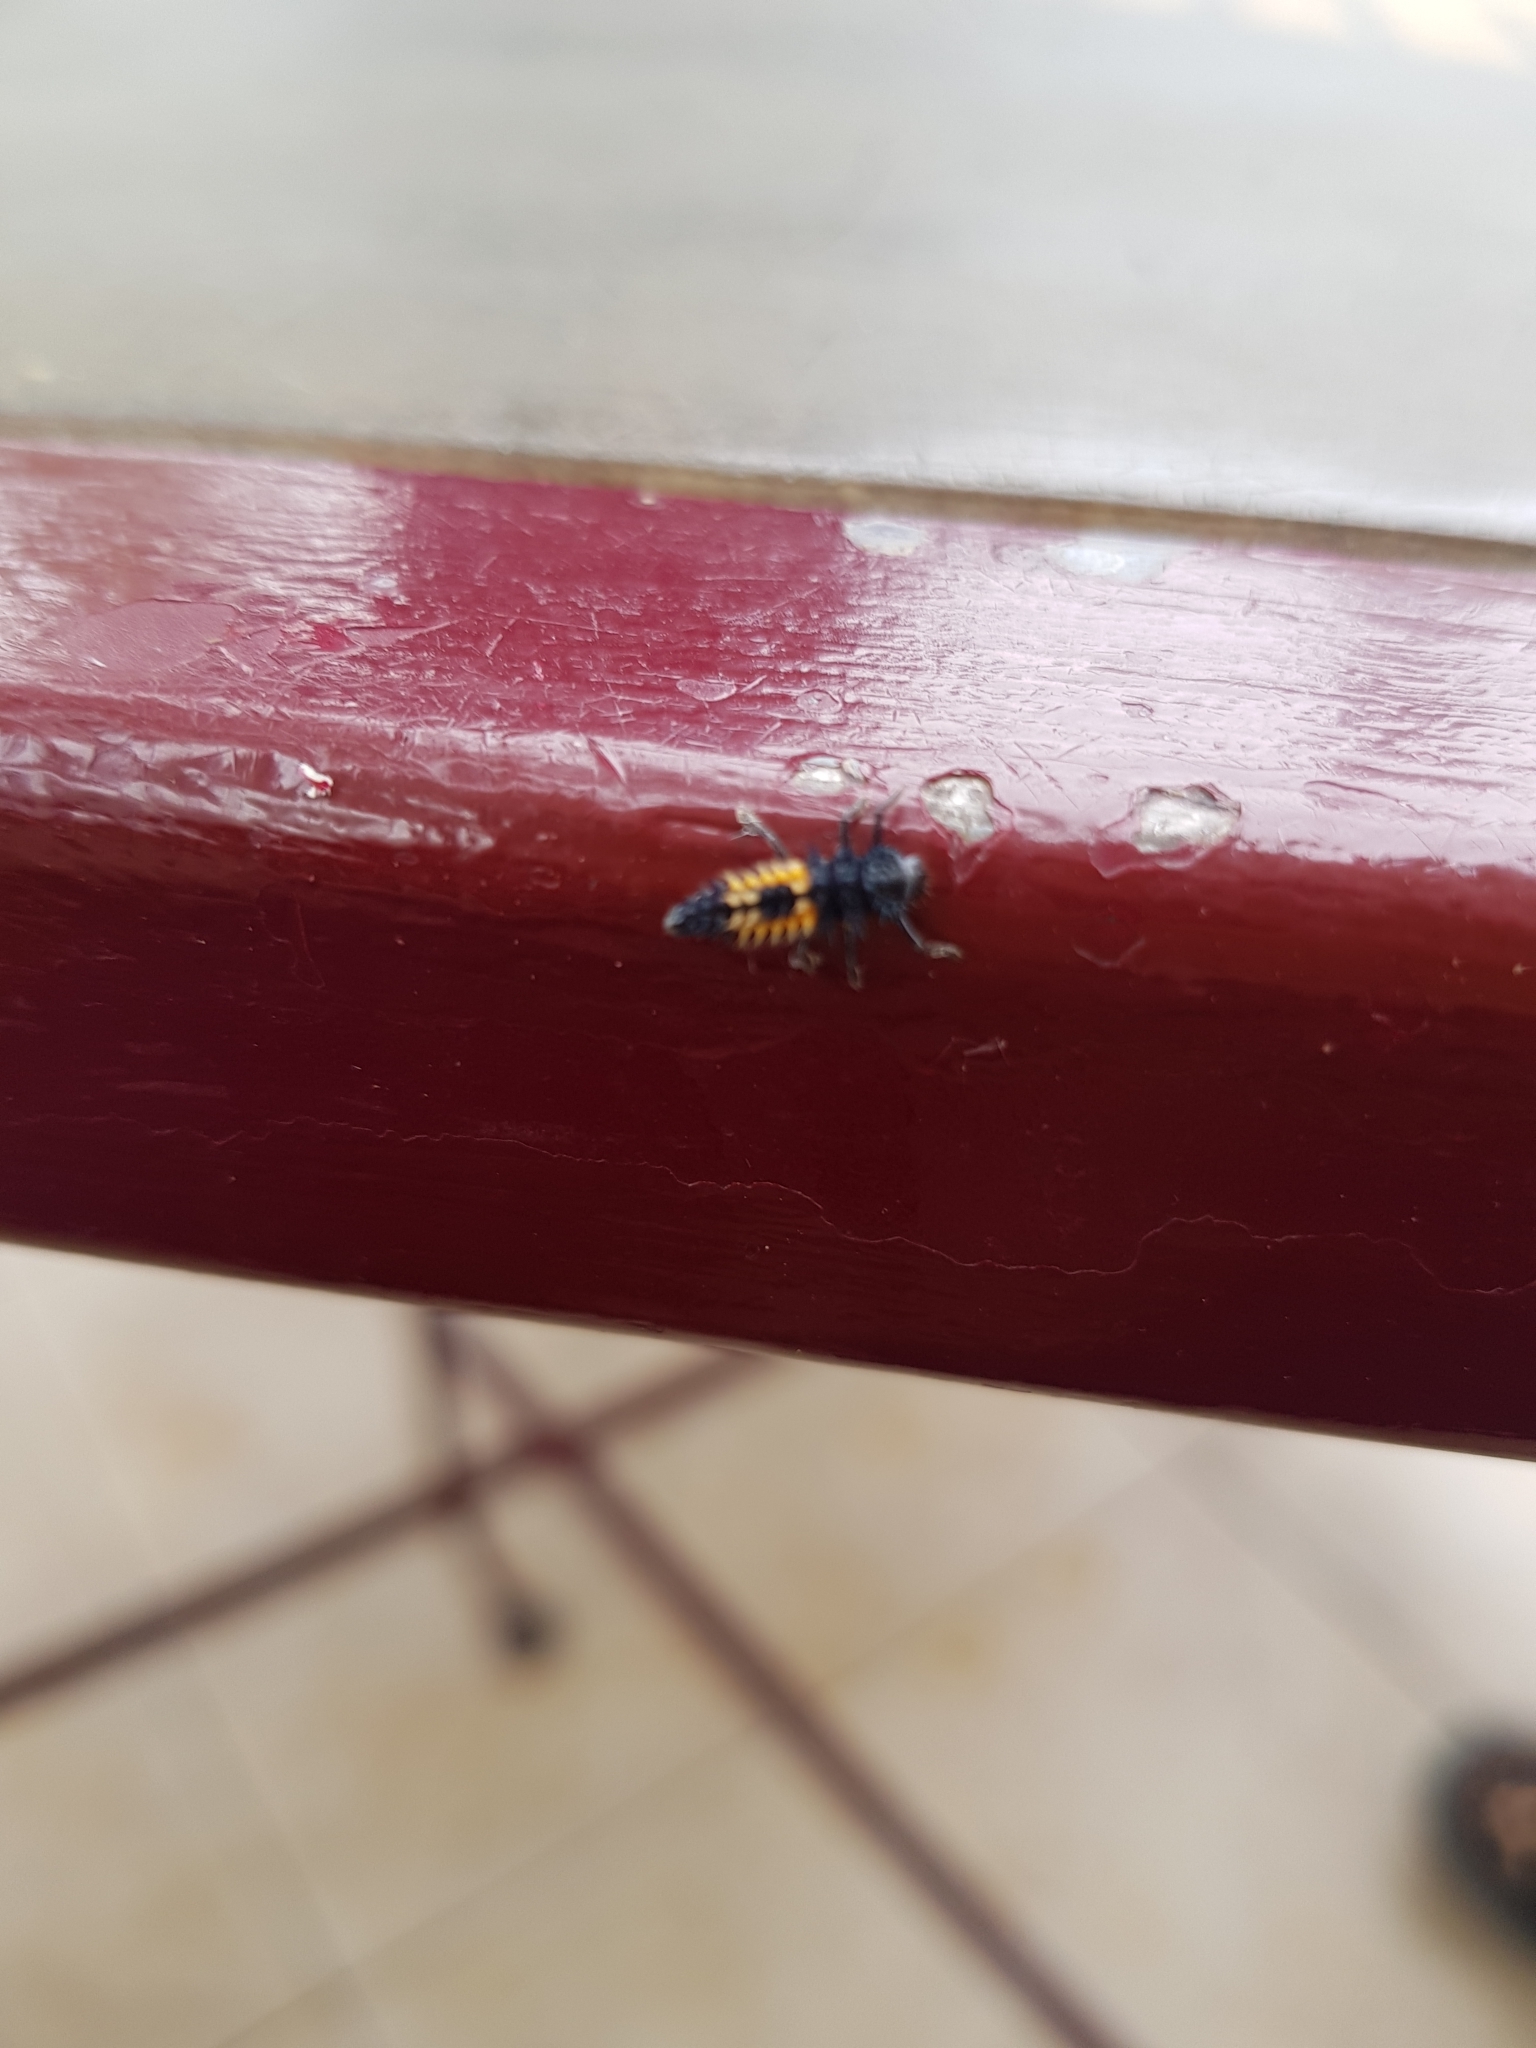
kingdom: Animalia
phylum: Arthropoda
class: Insecta
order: Coleoptera
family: Coccinellidae
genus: Harmonia
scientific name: Harmonia axyridis
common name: Harlequin ladybird
